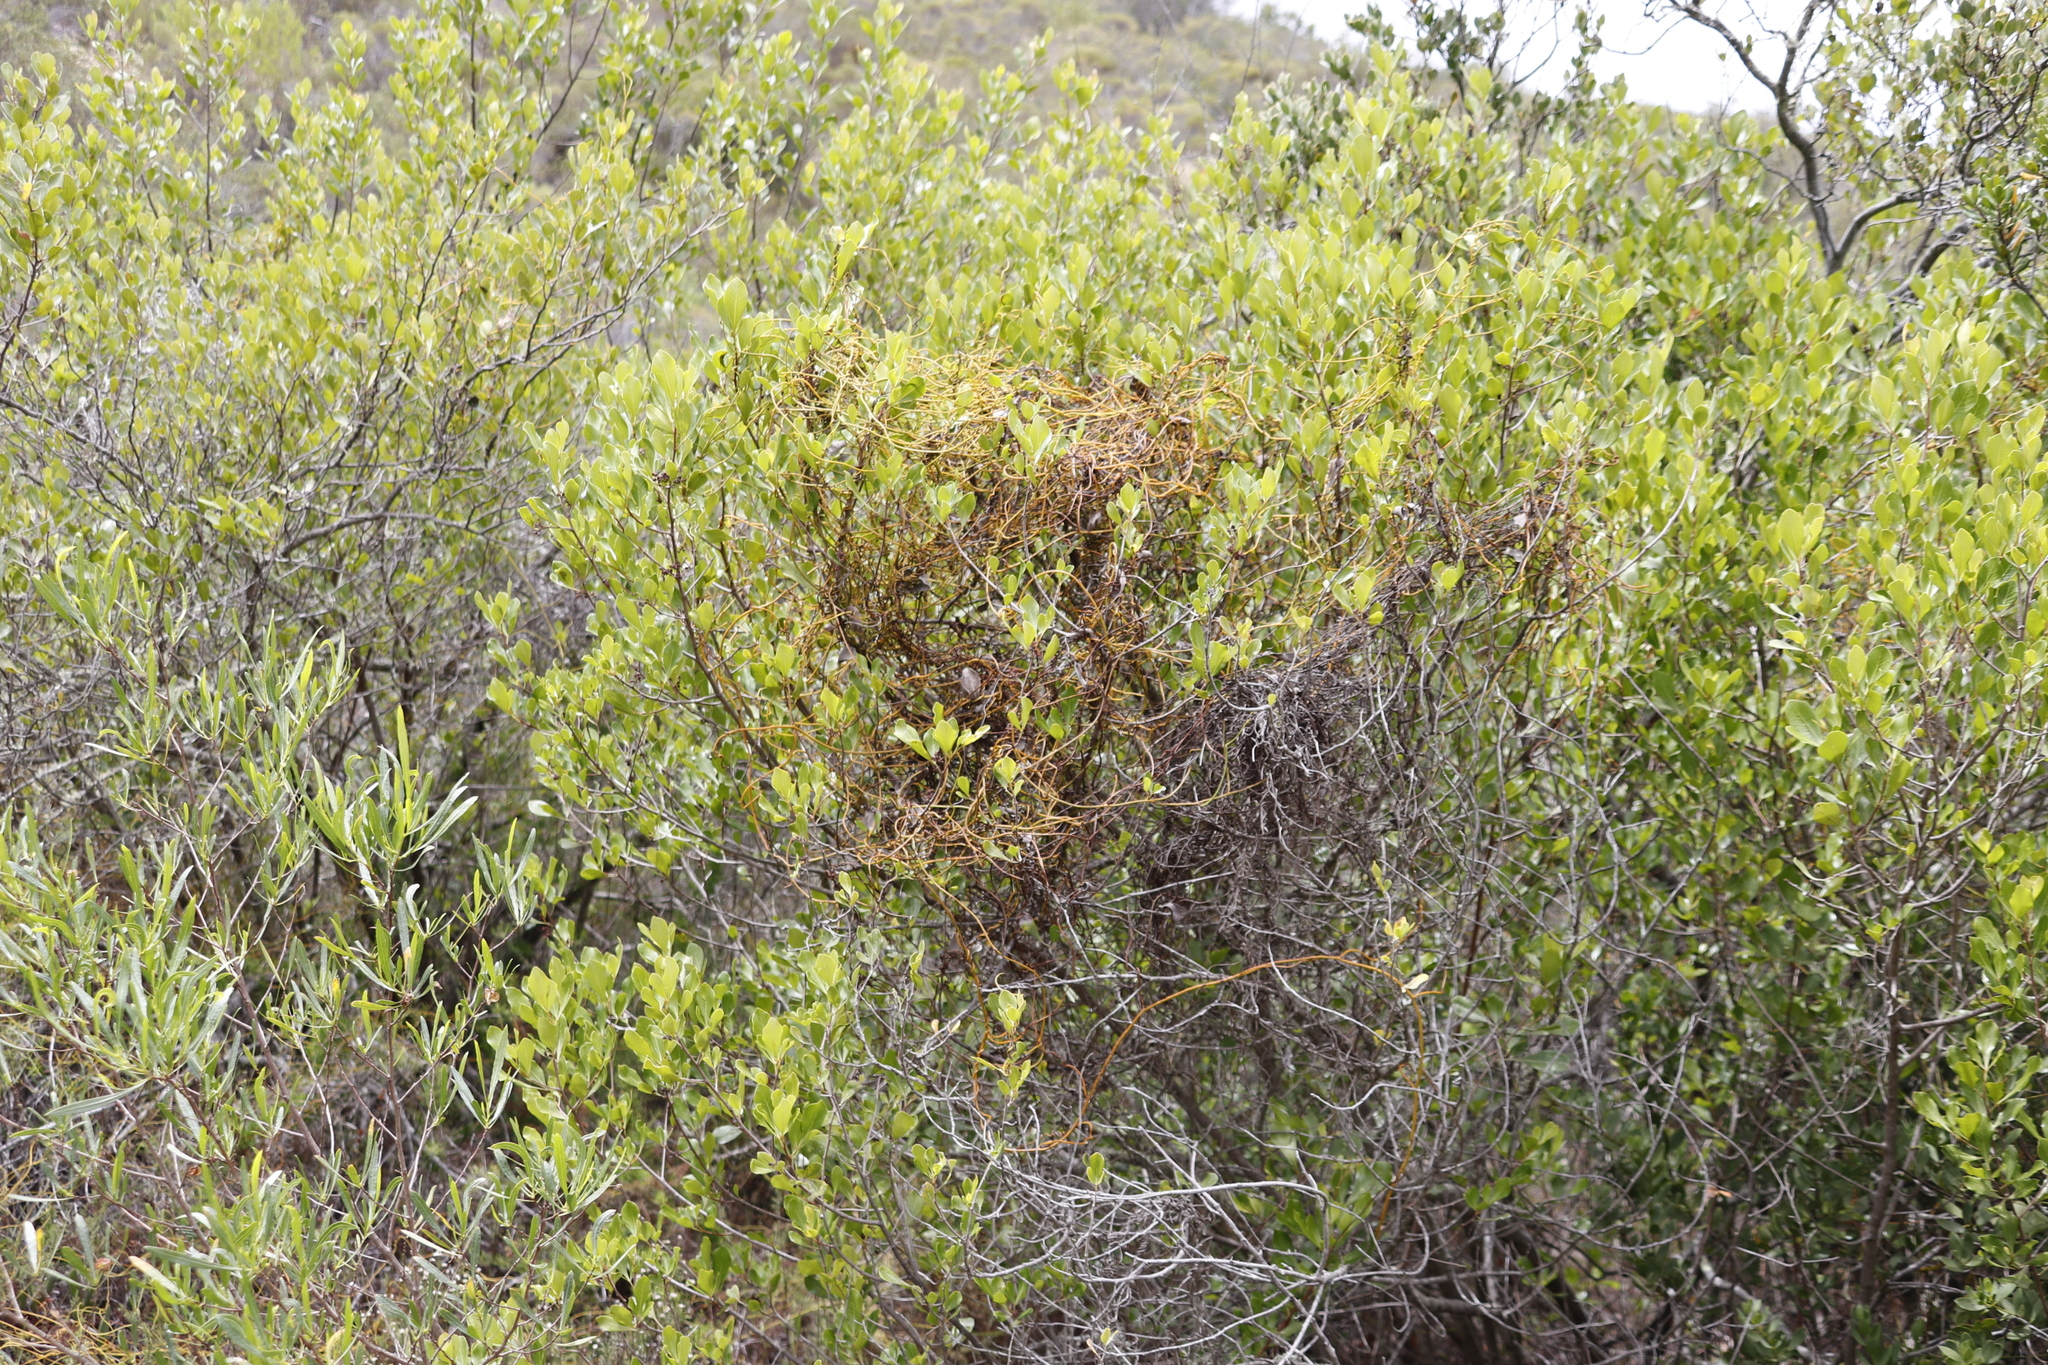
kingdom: Plantae
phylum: Tracheophyta
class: Magnoliopsida
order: Asterales
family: Asteraceae
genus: Osteospermum
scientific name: Osteospermum moniliferum
